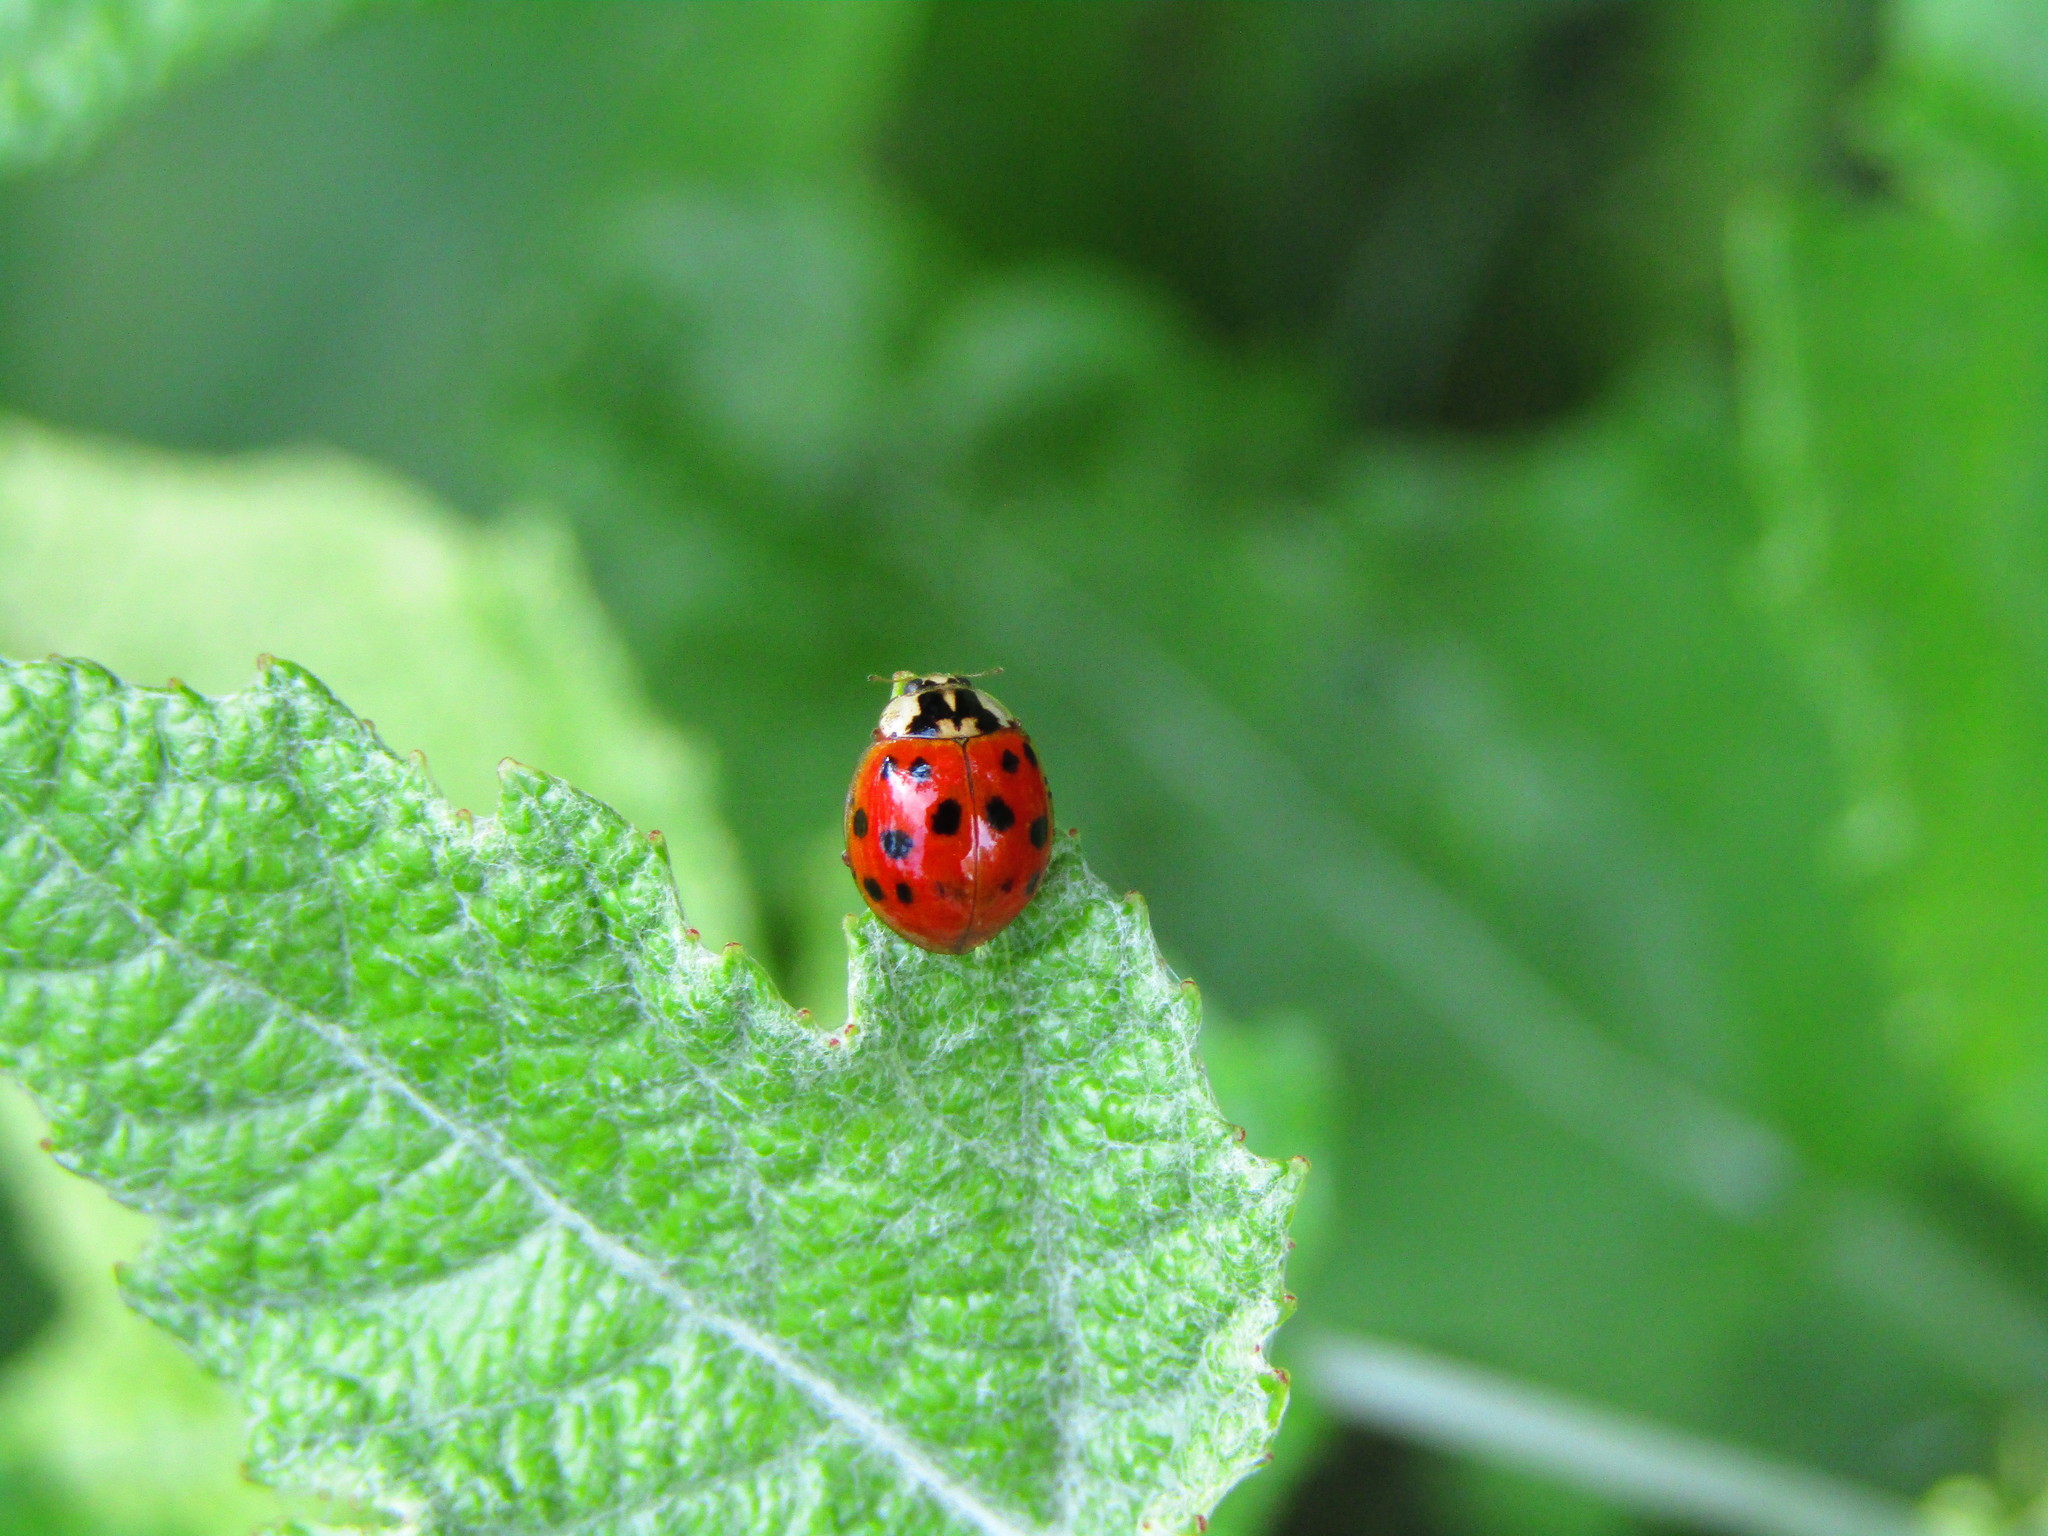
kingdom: Animalia
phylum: Arthropoda
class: Insecta
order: Coleoptera
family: Coccinellidae
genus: Harmonia
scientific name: Harmonia axyridis
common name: Harlequin ladybird
